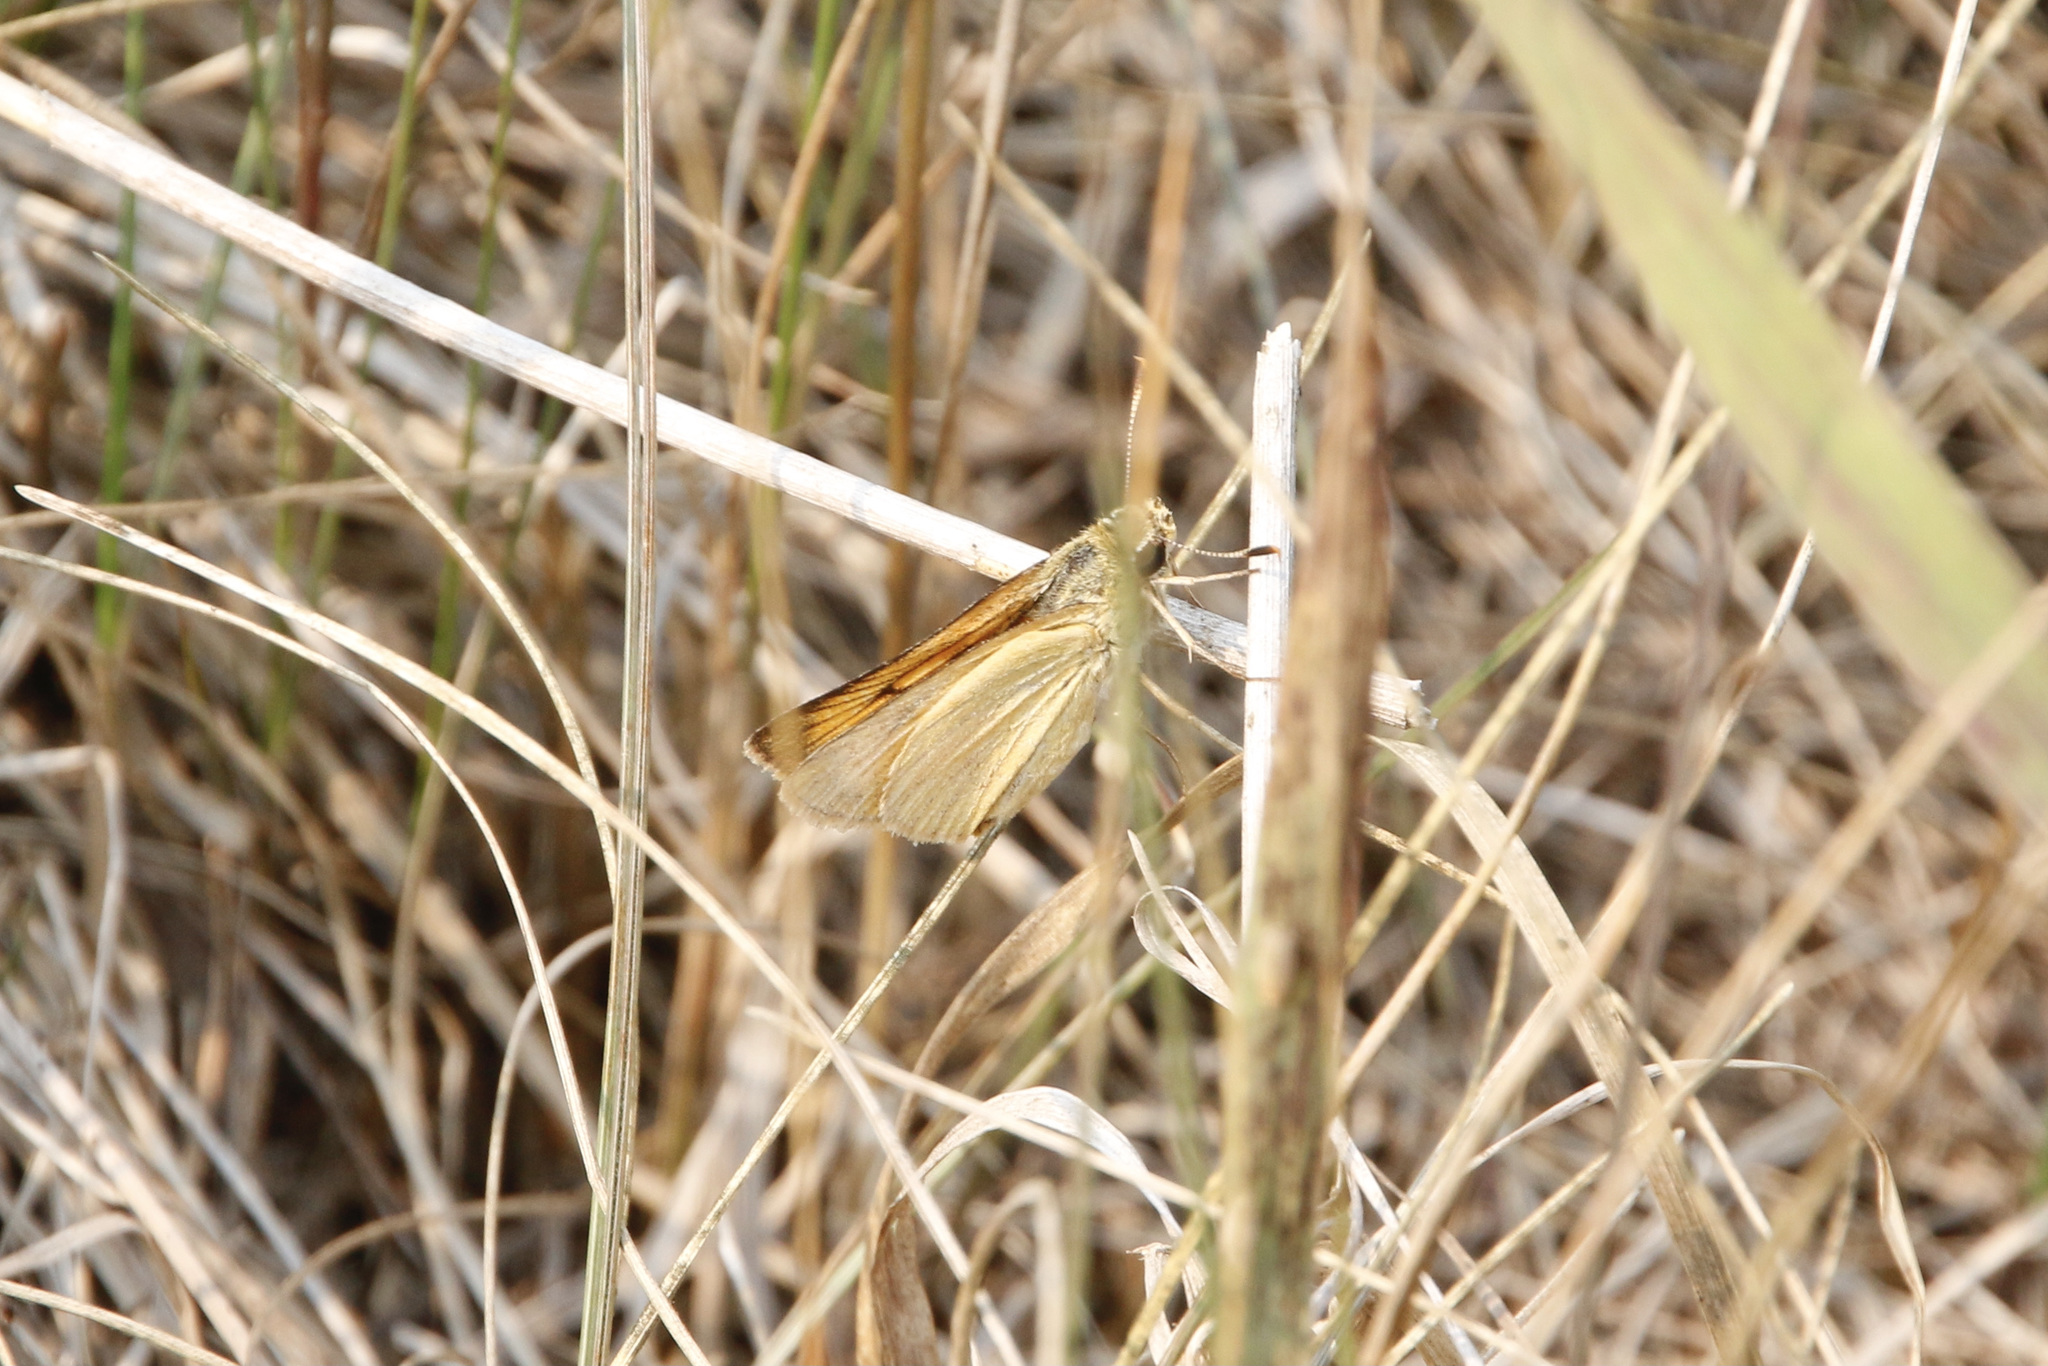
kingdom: Animalia
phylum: Arthropoda
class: Insecta
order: Lepidoptera
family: Hesperiidae
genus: Atrytone
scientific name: Atrytone delaware
